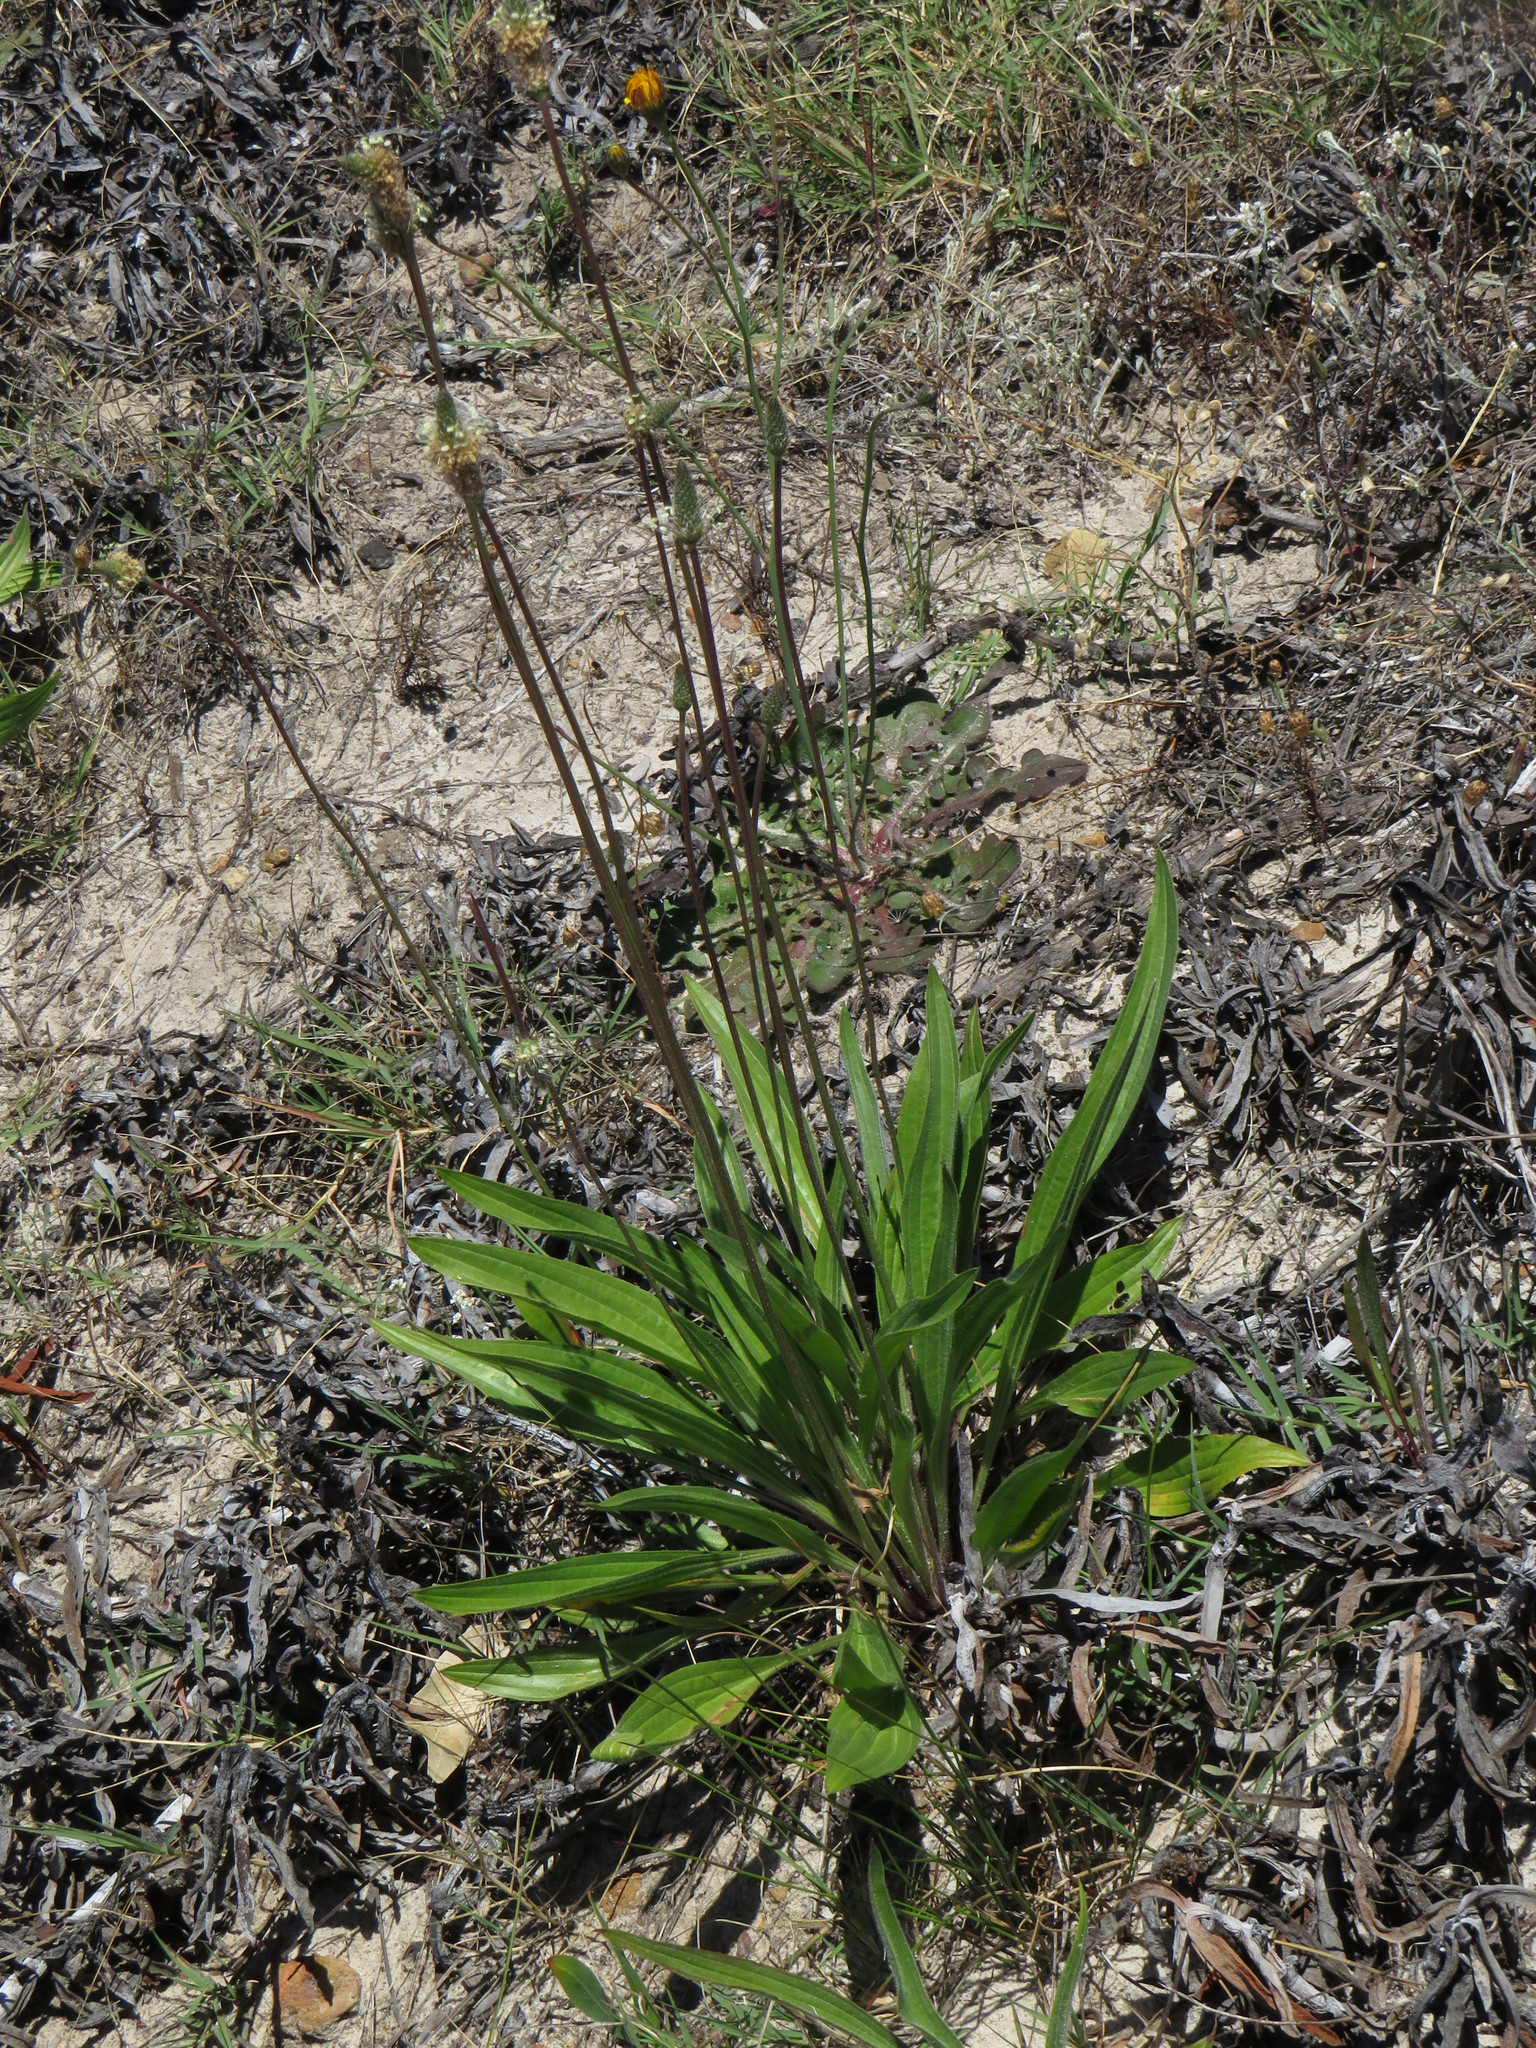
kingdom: Plantae
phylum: Tracheophyta
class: Magnoliopsida
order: Lamiales
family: Plantaginaceae
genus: Plantago
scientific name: Plantago lanceolata
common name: Ribwort plantain
